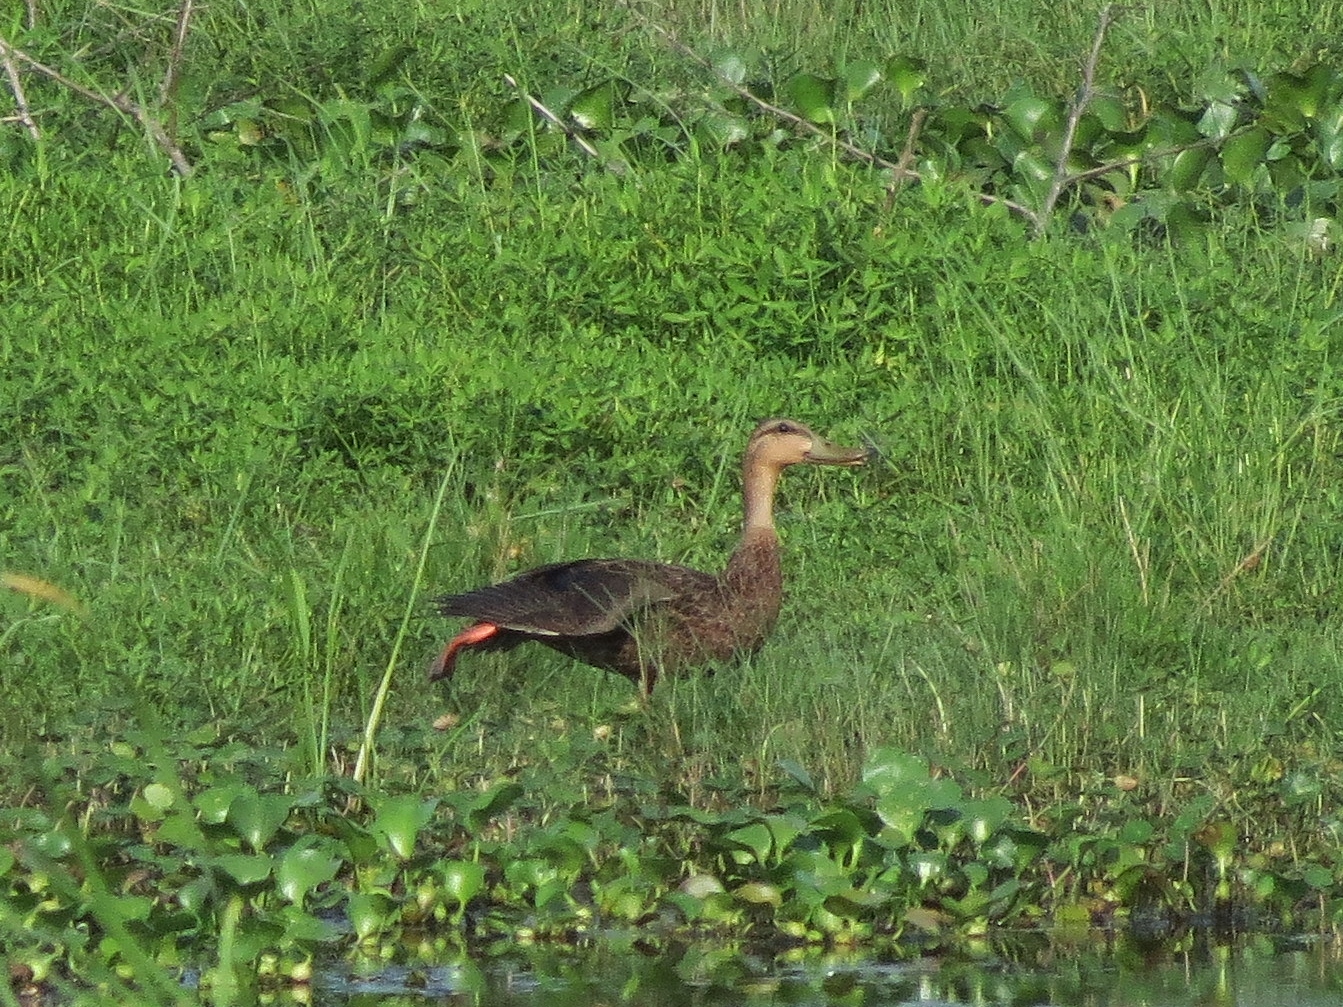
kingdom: Animalia
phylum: Chordata
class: Aves
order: Anseriformes
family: Anatidae
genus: Anas
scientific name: Anas fulvigula
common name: Mottled duck
